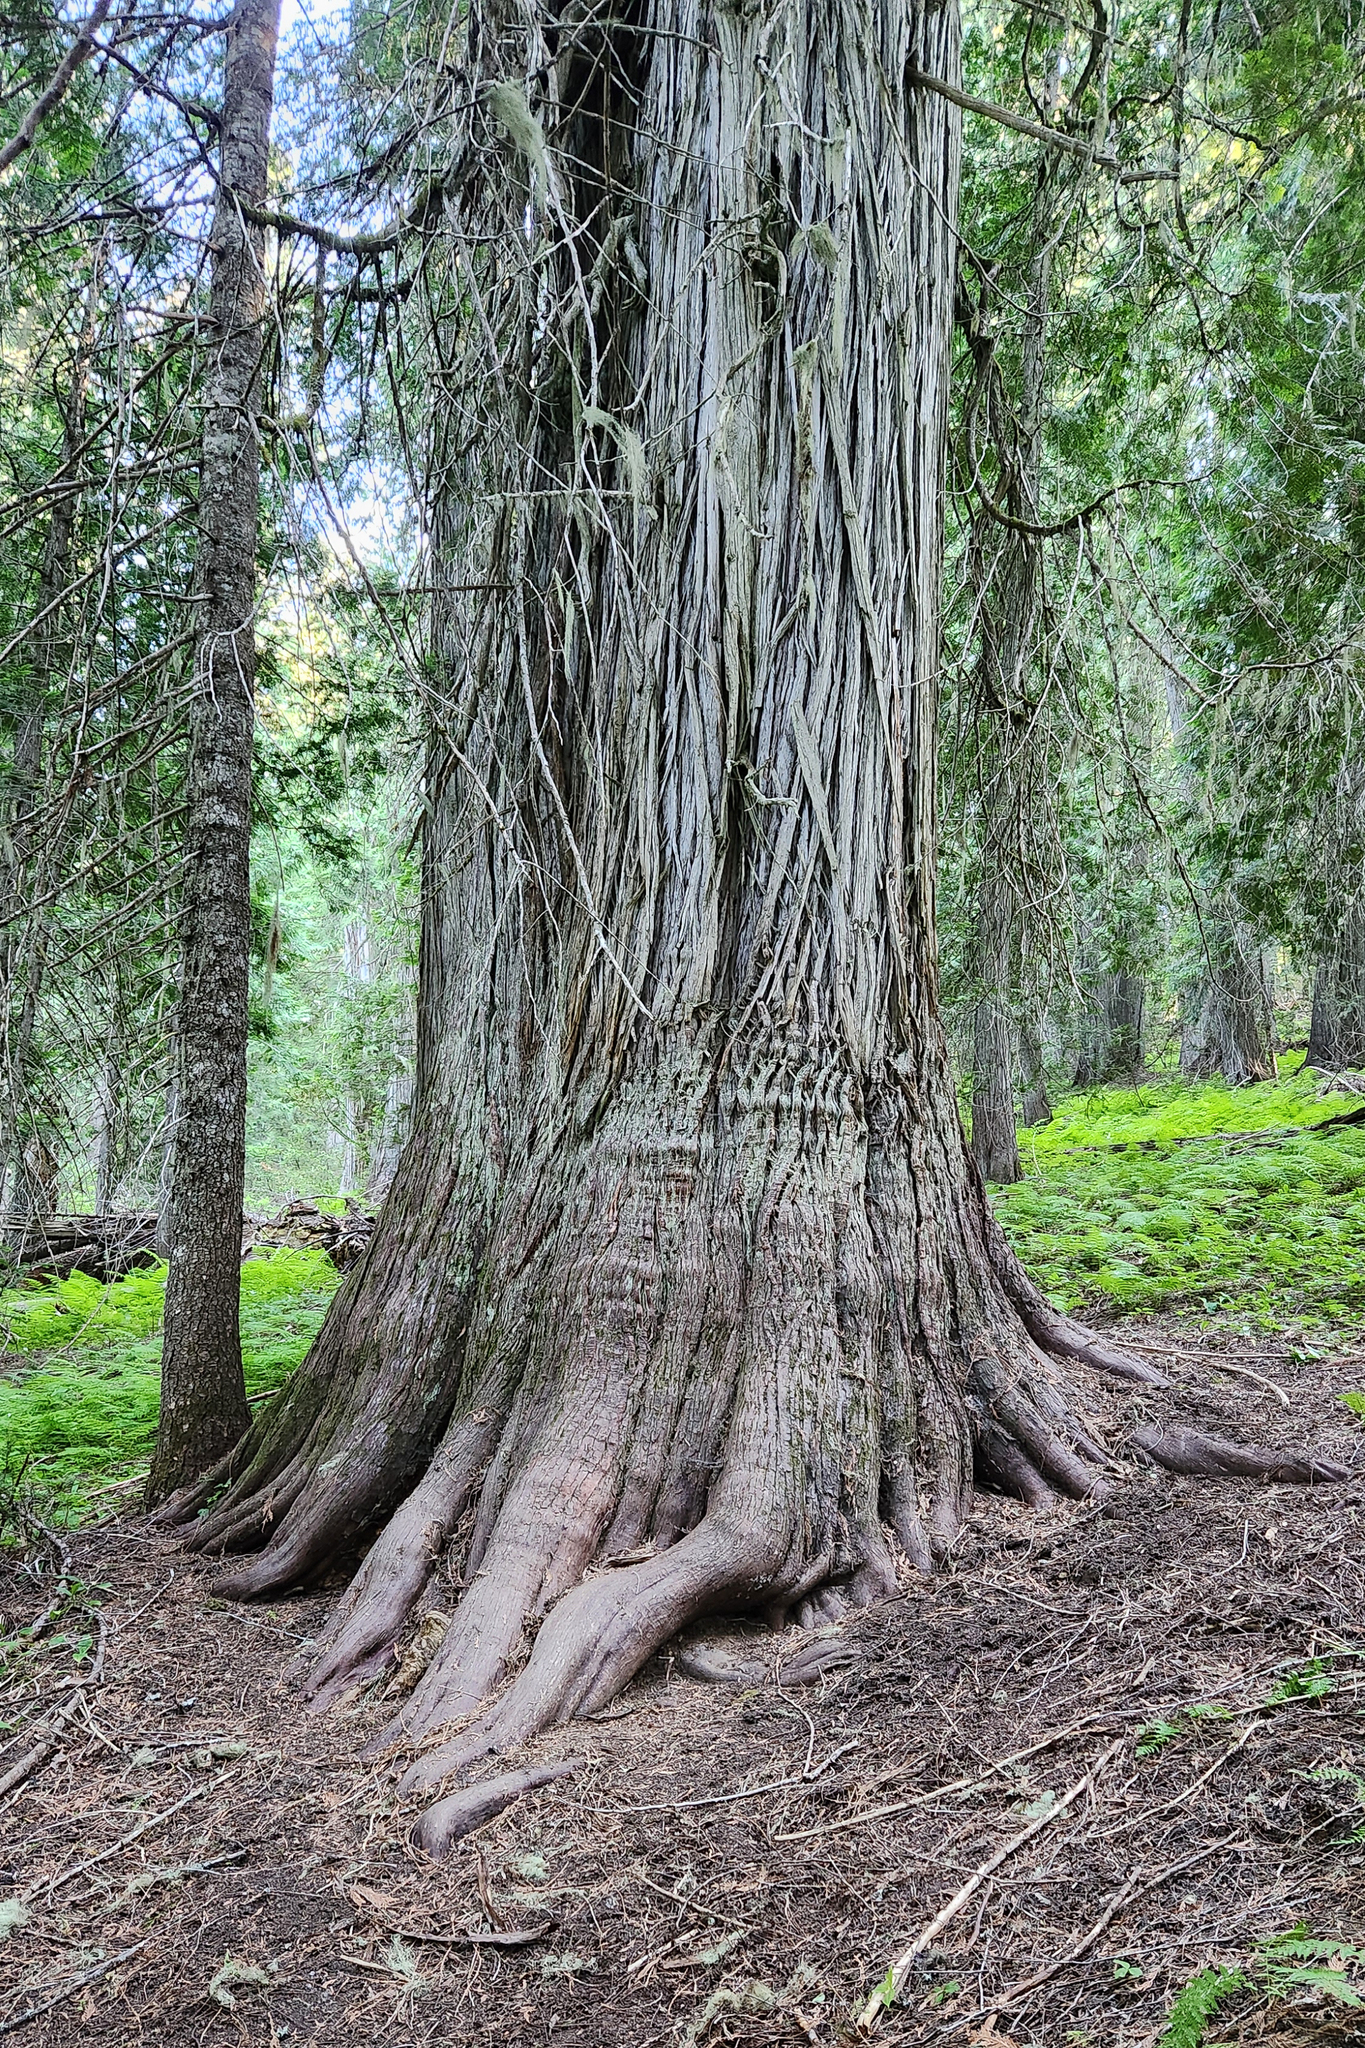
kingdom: Plantae
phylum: Tracheophyta
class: Pinopsida
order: Pinales
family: Cupressaceae
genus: Thuja
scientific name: Thuja plicata
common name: Western red-cedar
